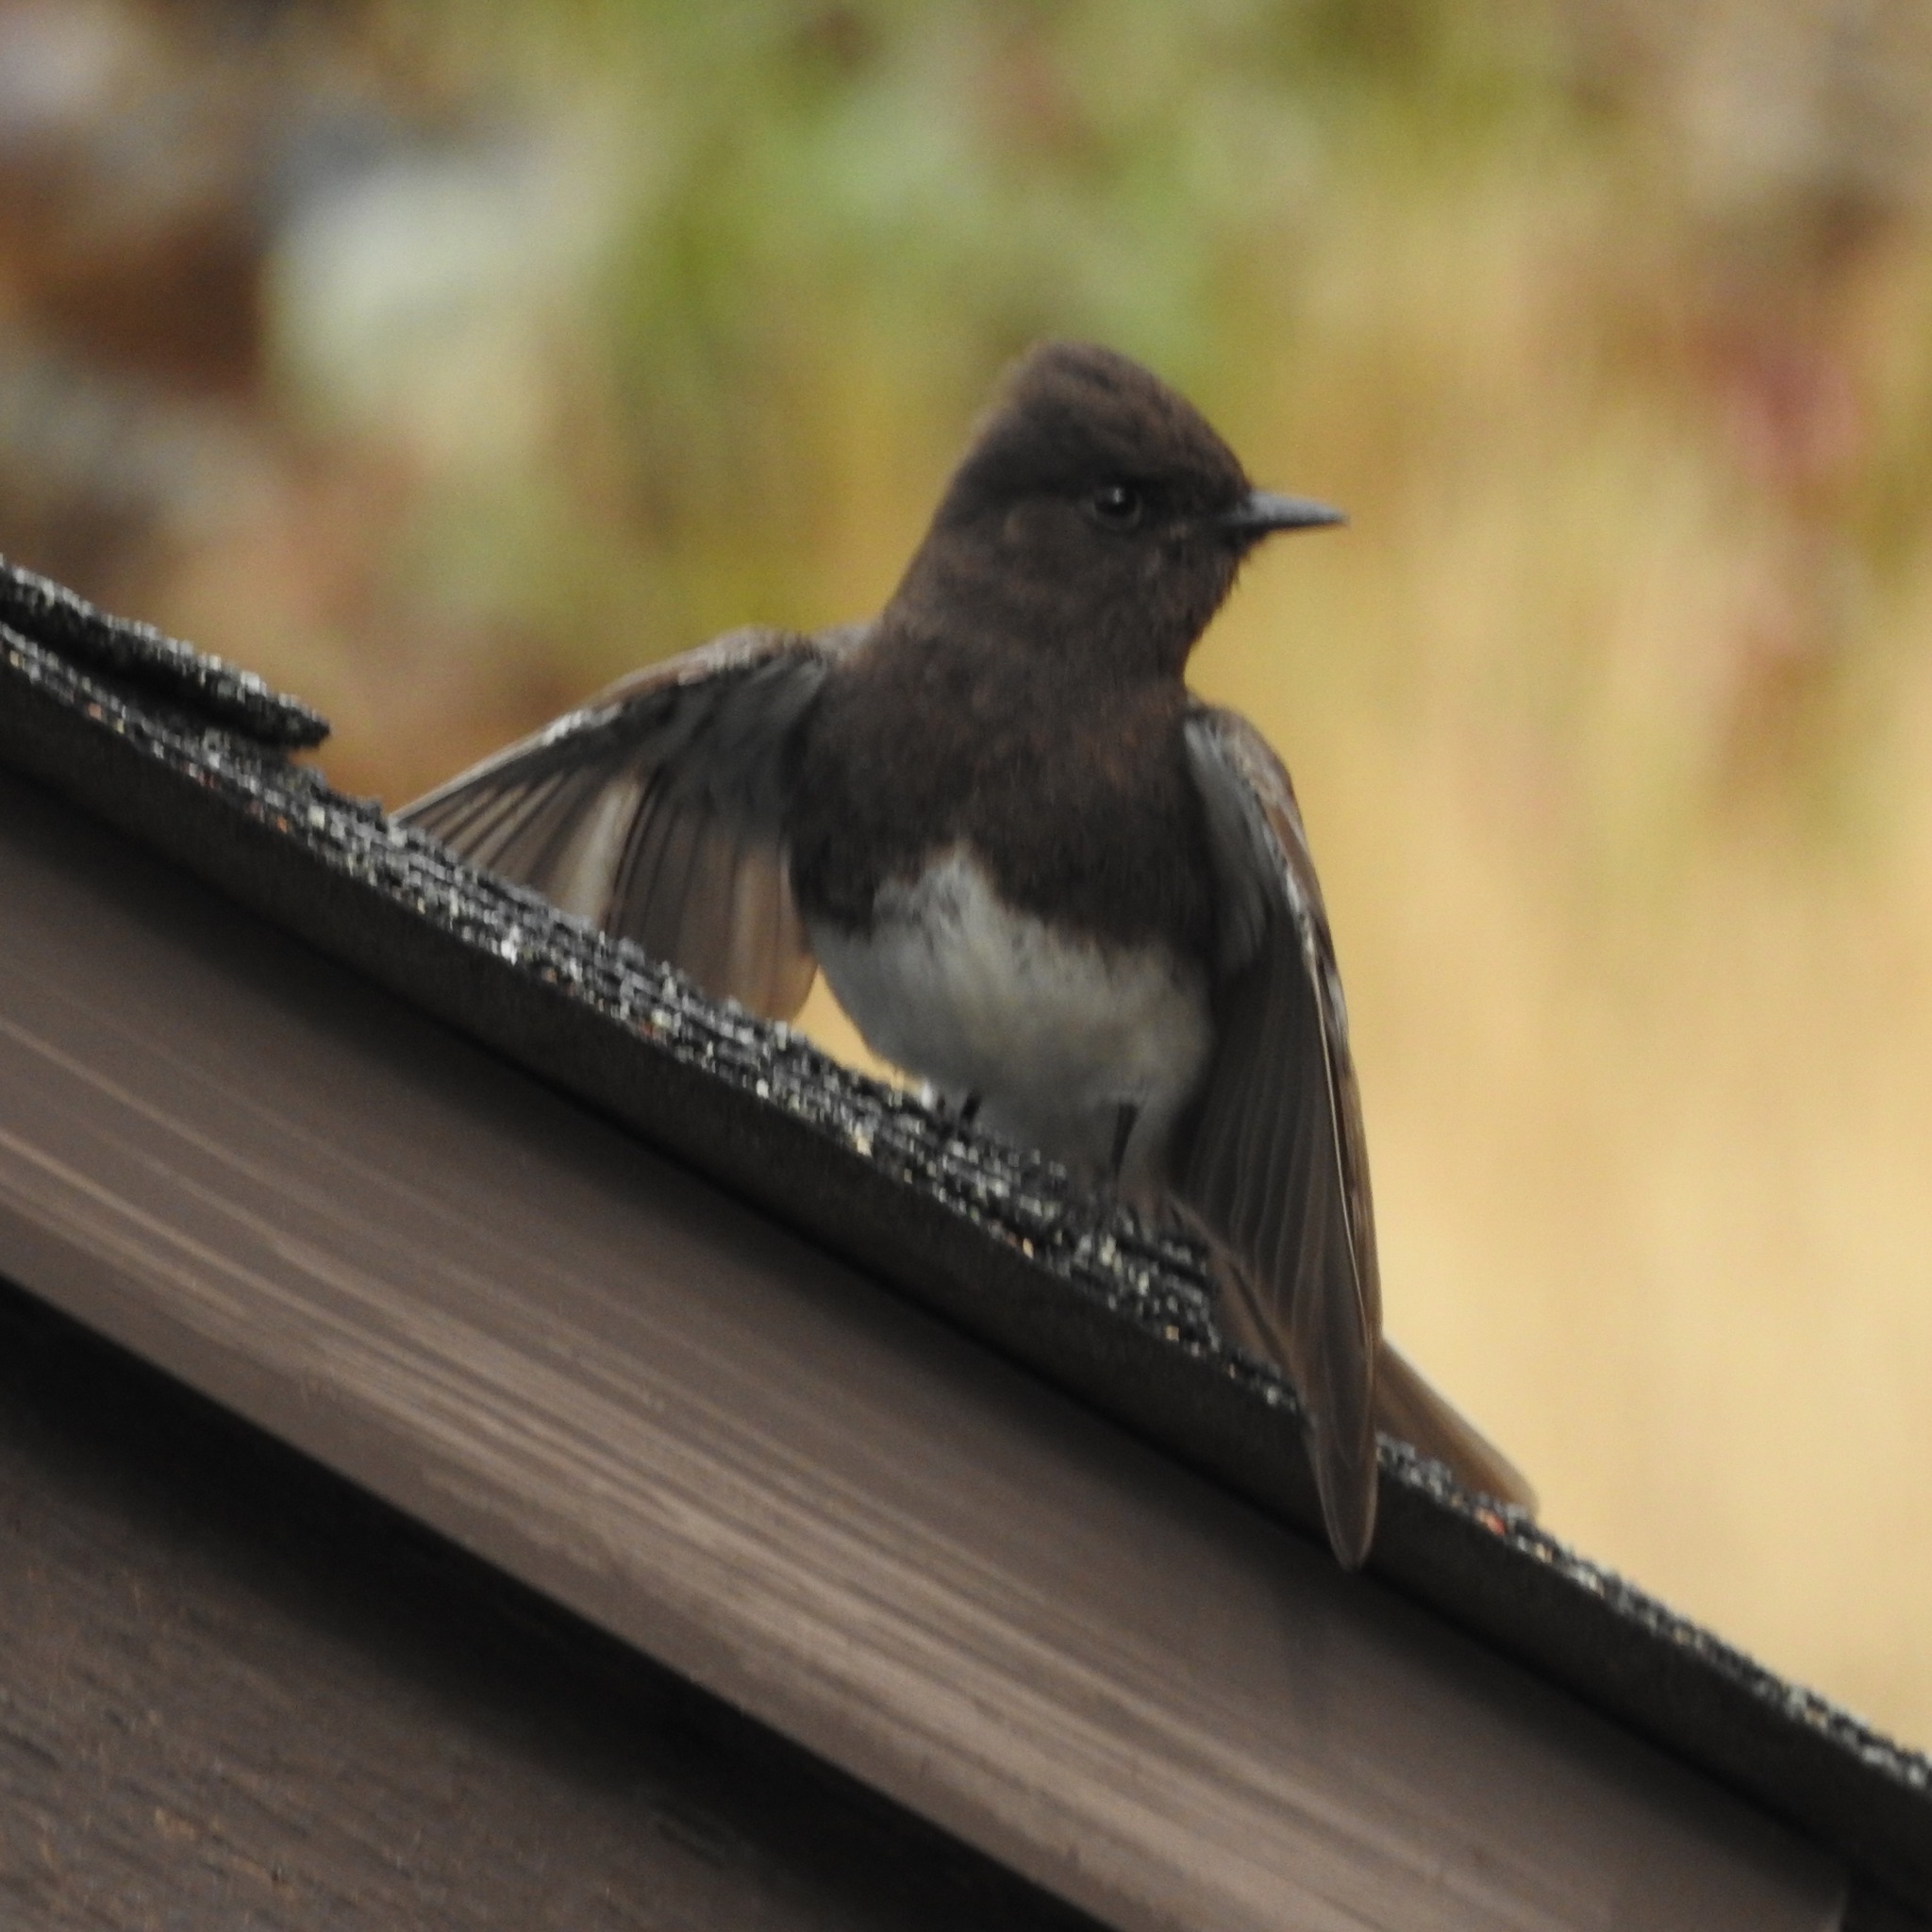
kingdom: Animalia
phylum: Chordata
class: Aves
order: Passeriformes
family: Tyrannidae
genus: Sayornis
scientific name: Sayornis nigricans
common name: Black phoebe
